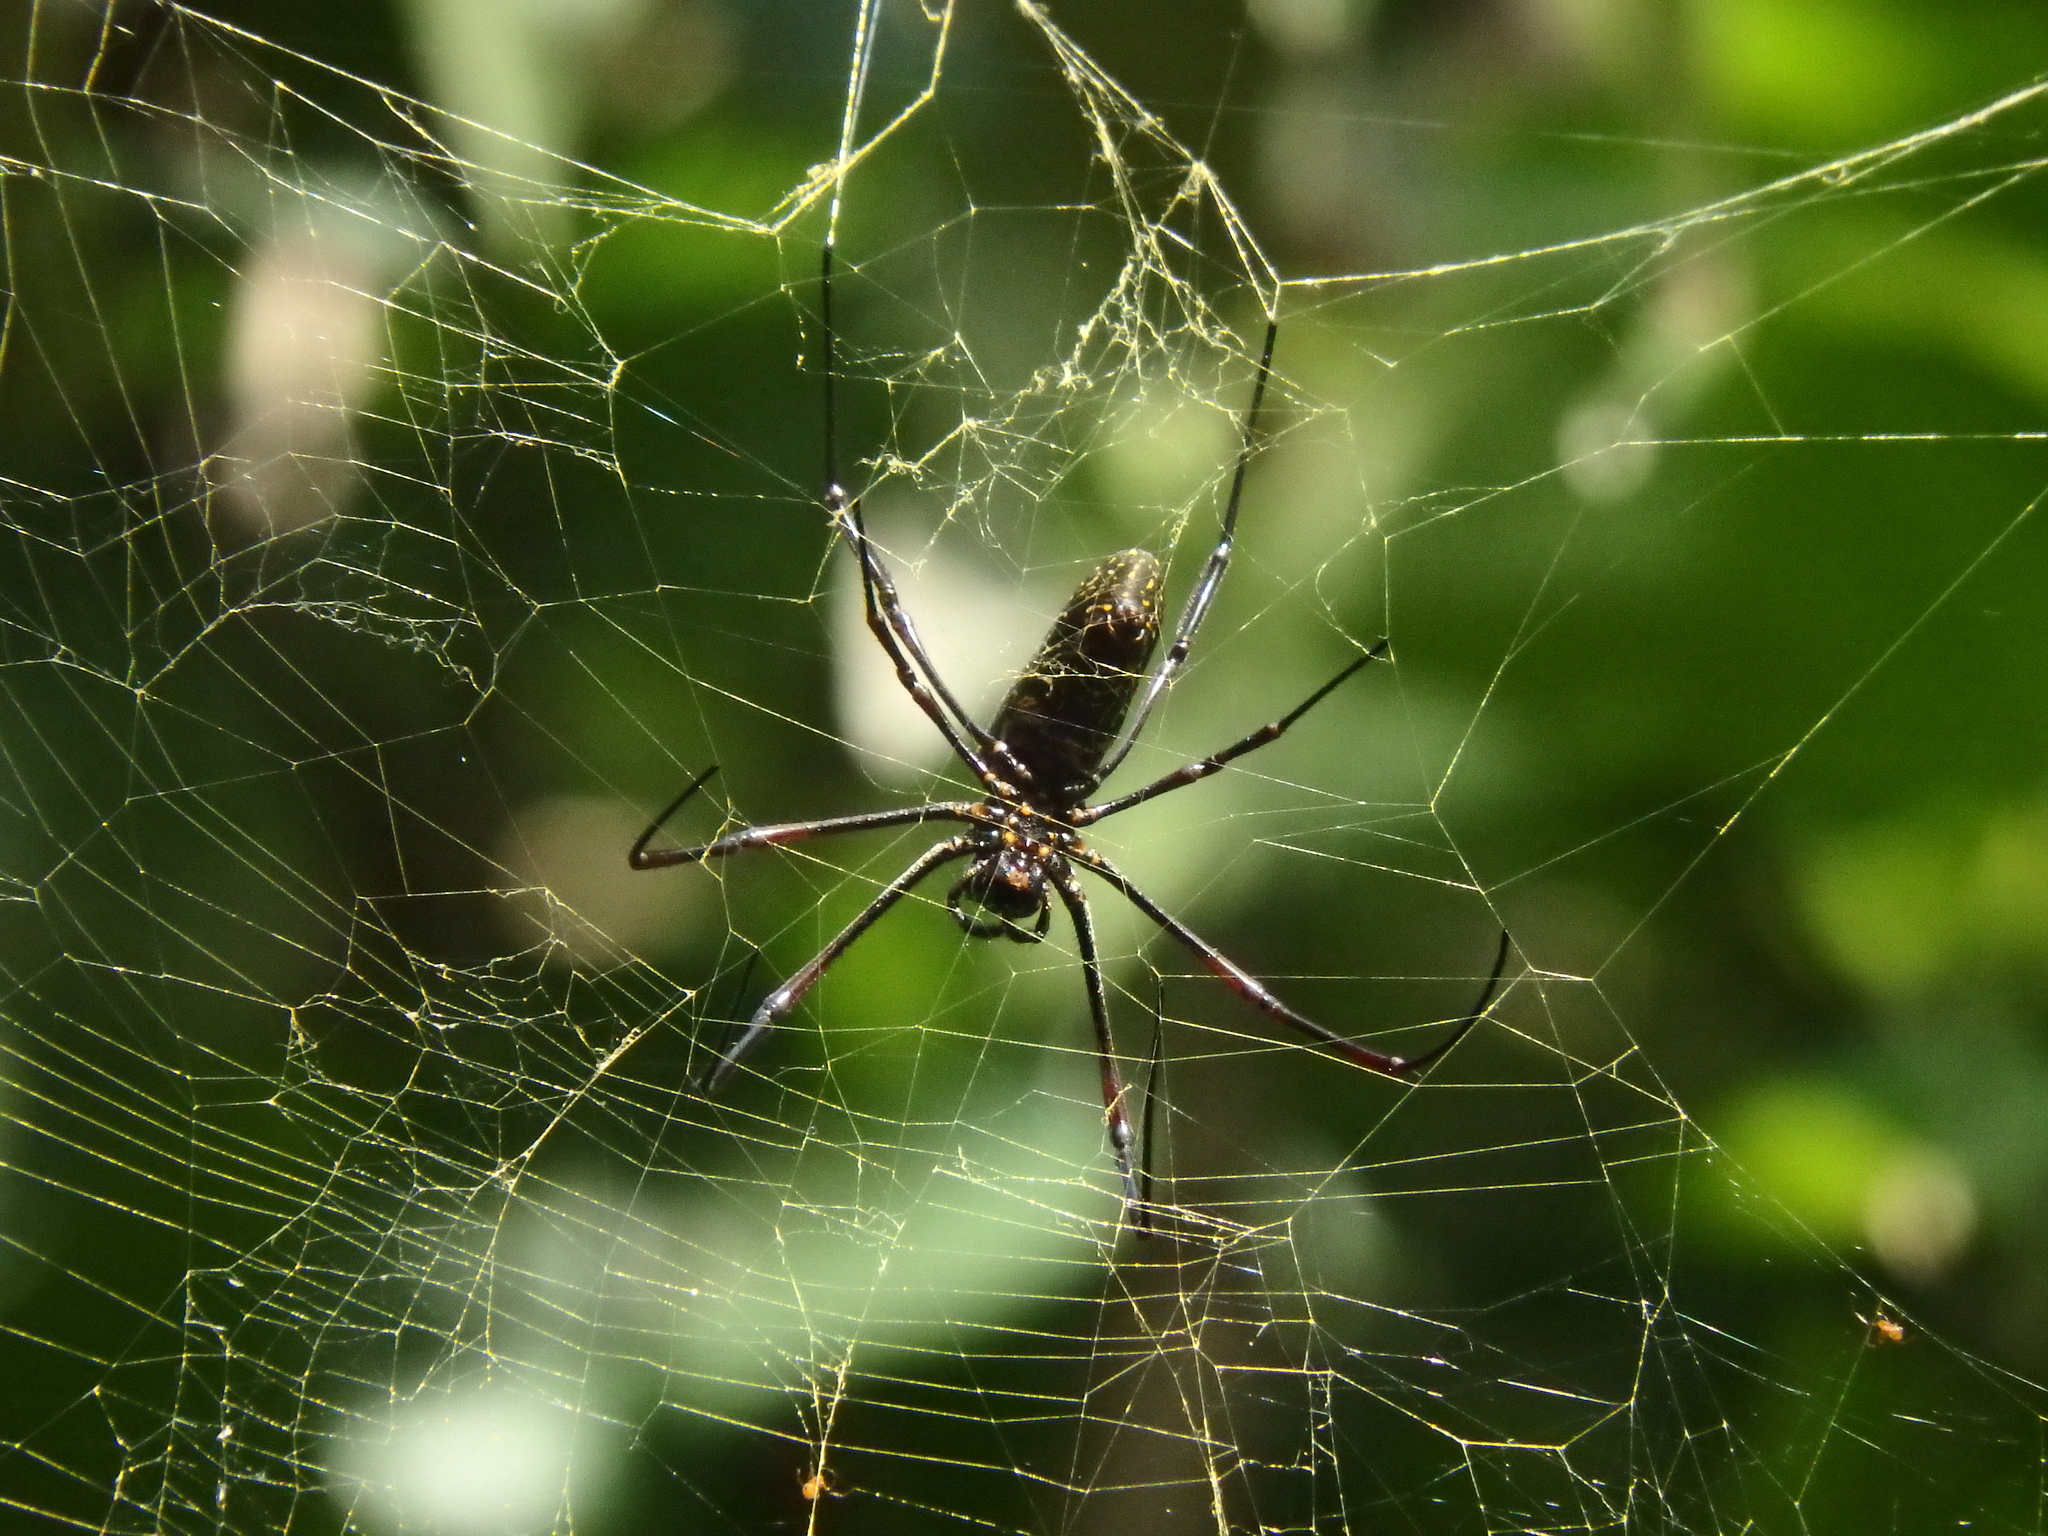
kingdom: Animalia
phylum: Arthropoda
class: Arachnida
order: Araneae
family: Araneidae
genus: Trichonephila
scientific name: Trichonephila antipodiana
